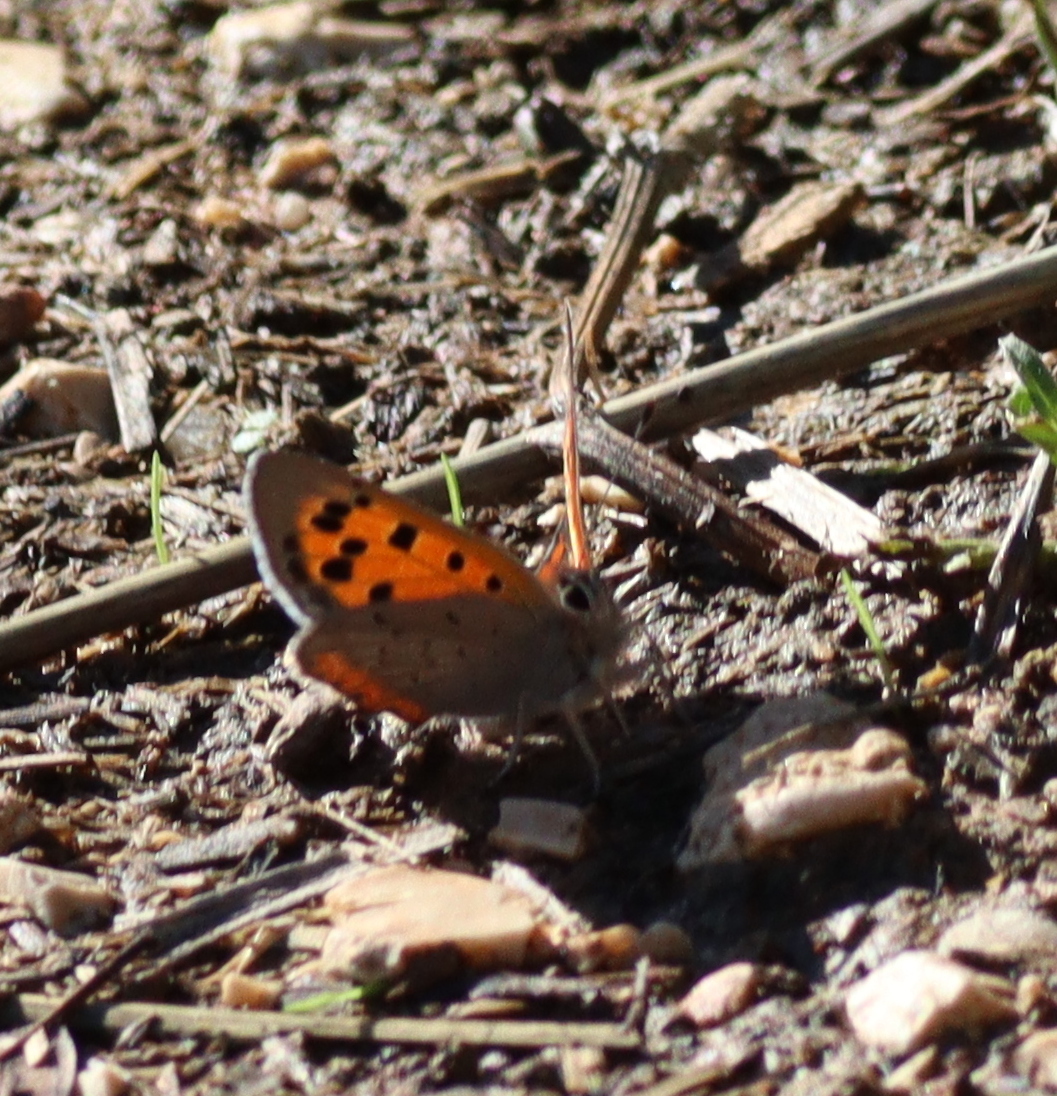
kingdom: Animalia
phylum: Arthropoda
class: Insecta
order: Lepidoptera
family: Lycaenidae
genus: Lycaena
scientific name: Lycaena phlaeas
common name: Small copper
